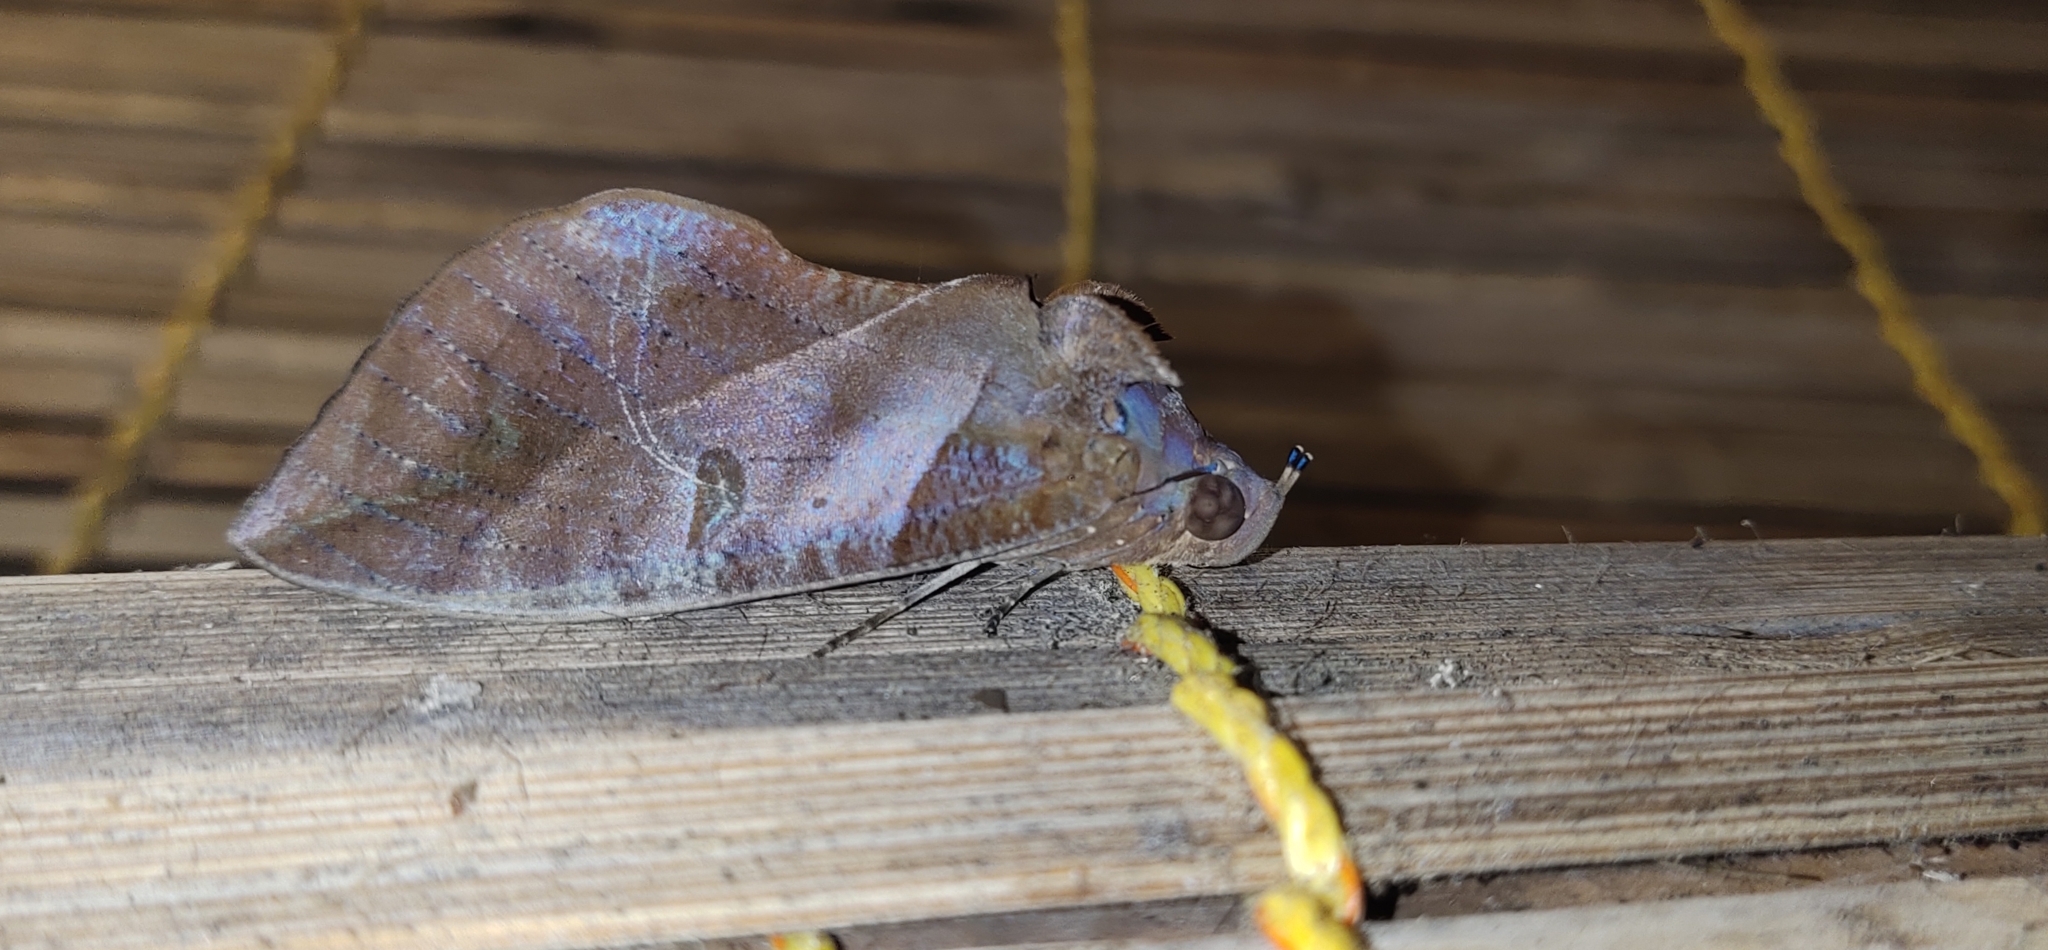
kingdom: Animalia
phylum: Arthropoda
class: Insecta
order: Lepidoptera
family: Erebidae
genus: Eudocima
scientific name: Eudocima phalonia
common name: Wasp
